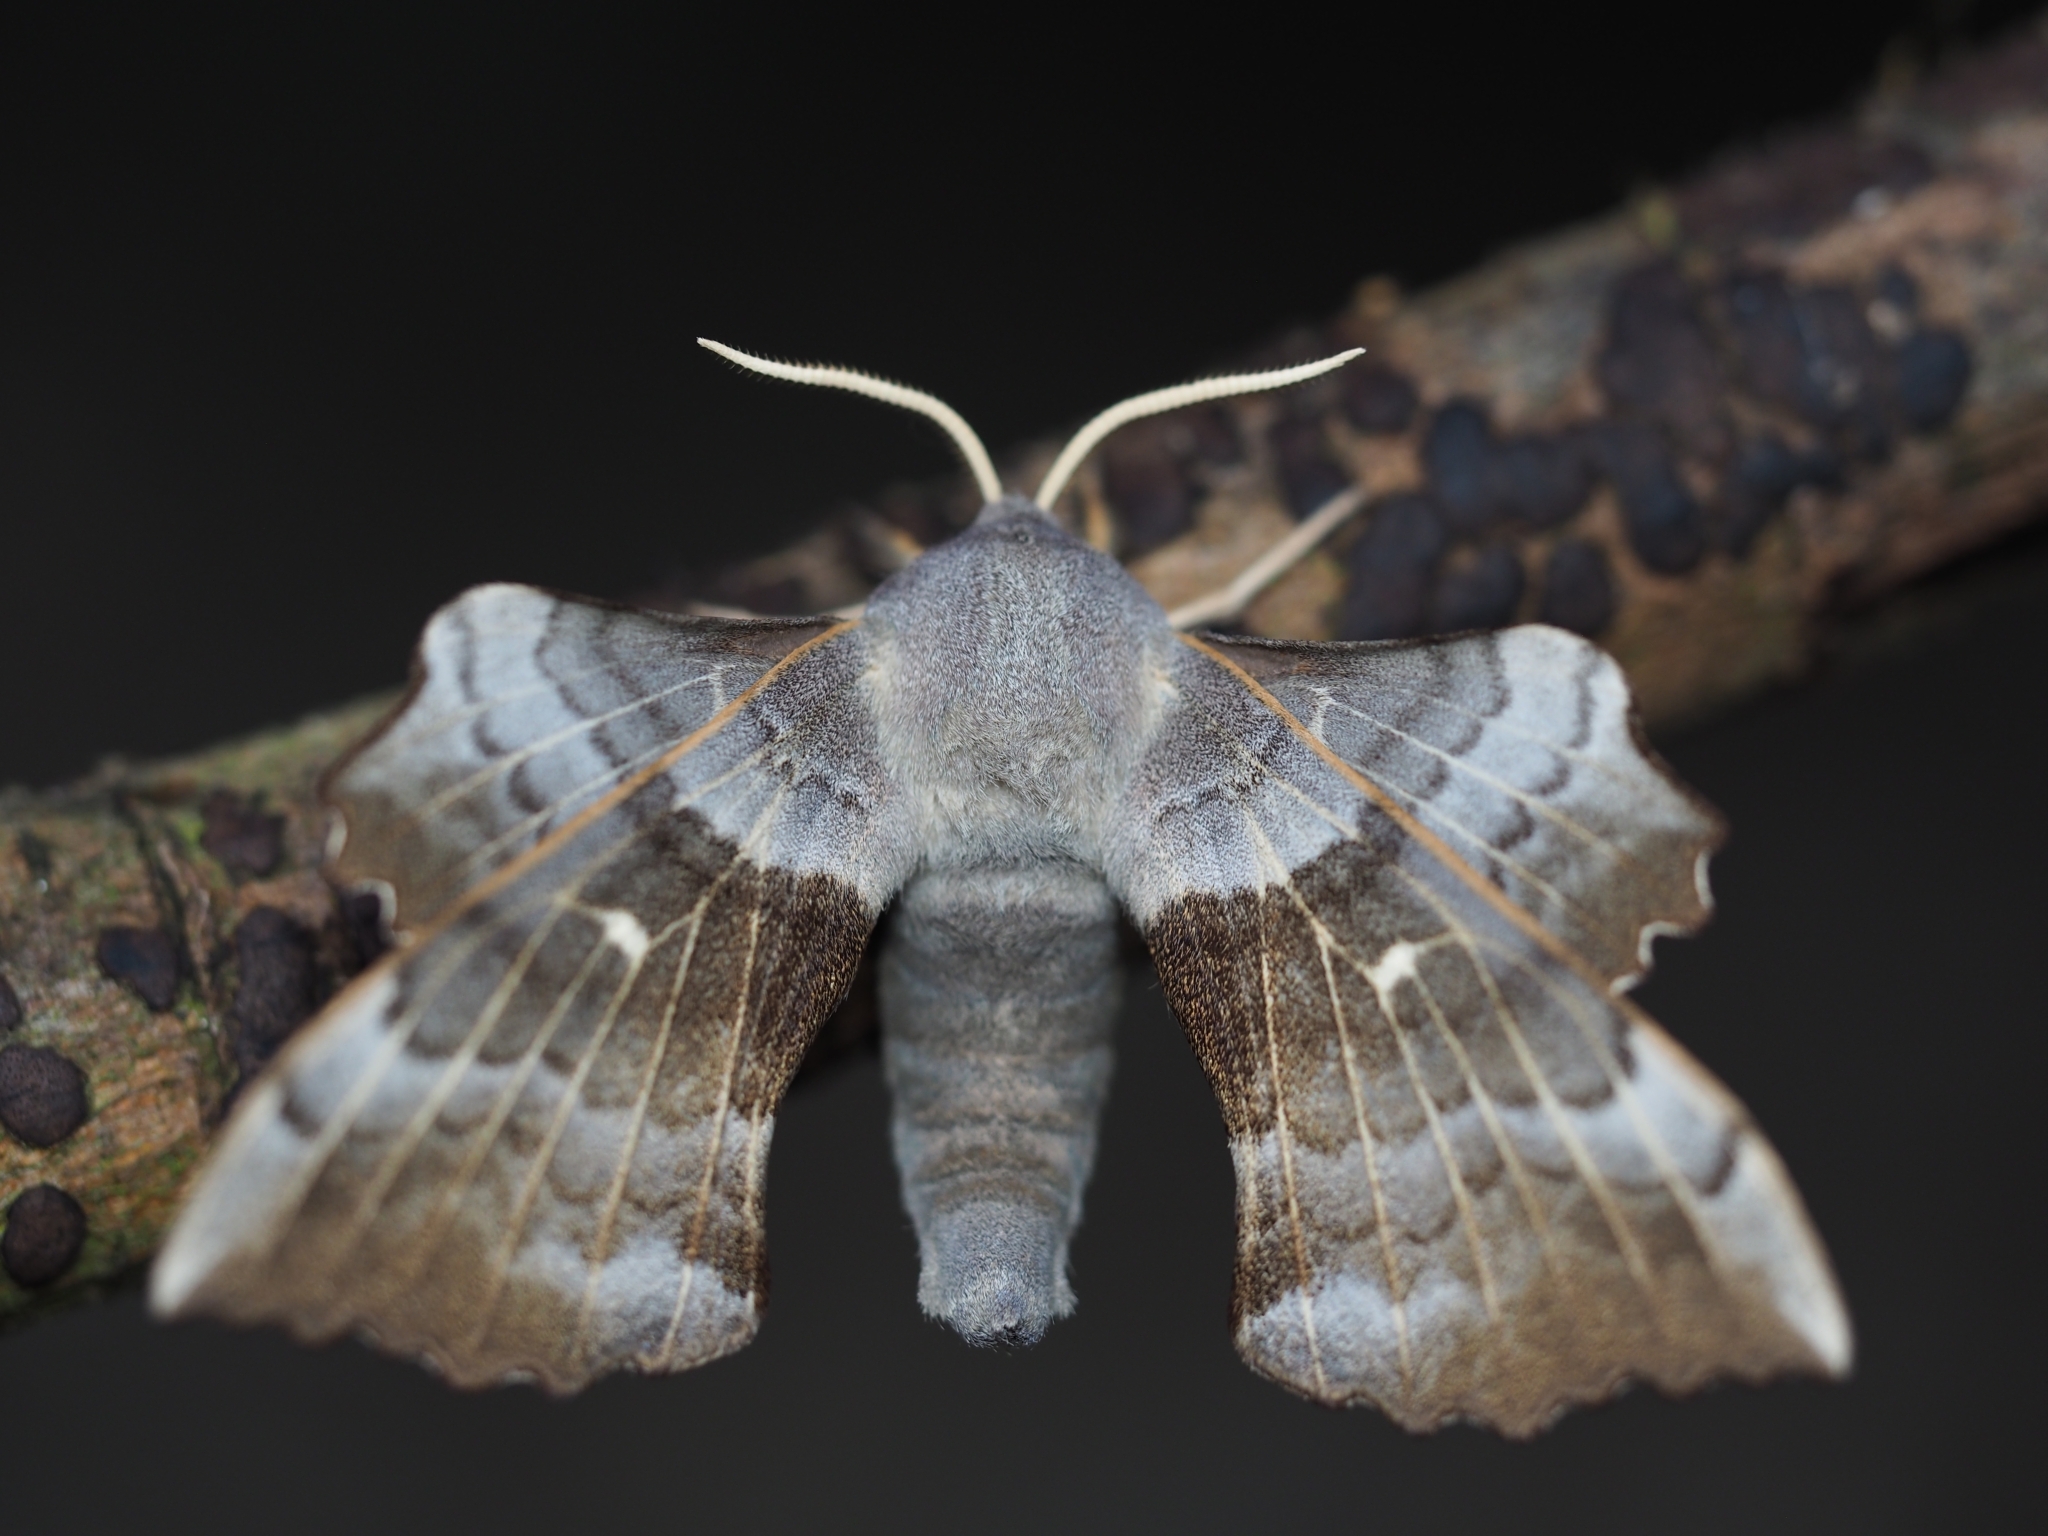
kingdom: Animalia
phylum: Arthropoda
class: Insecta
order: Lepidoptera
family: Sphingidae
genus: Laothoe
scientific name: Laothoe populi
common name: Poplar hawk-moth
